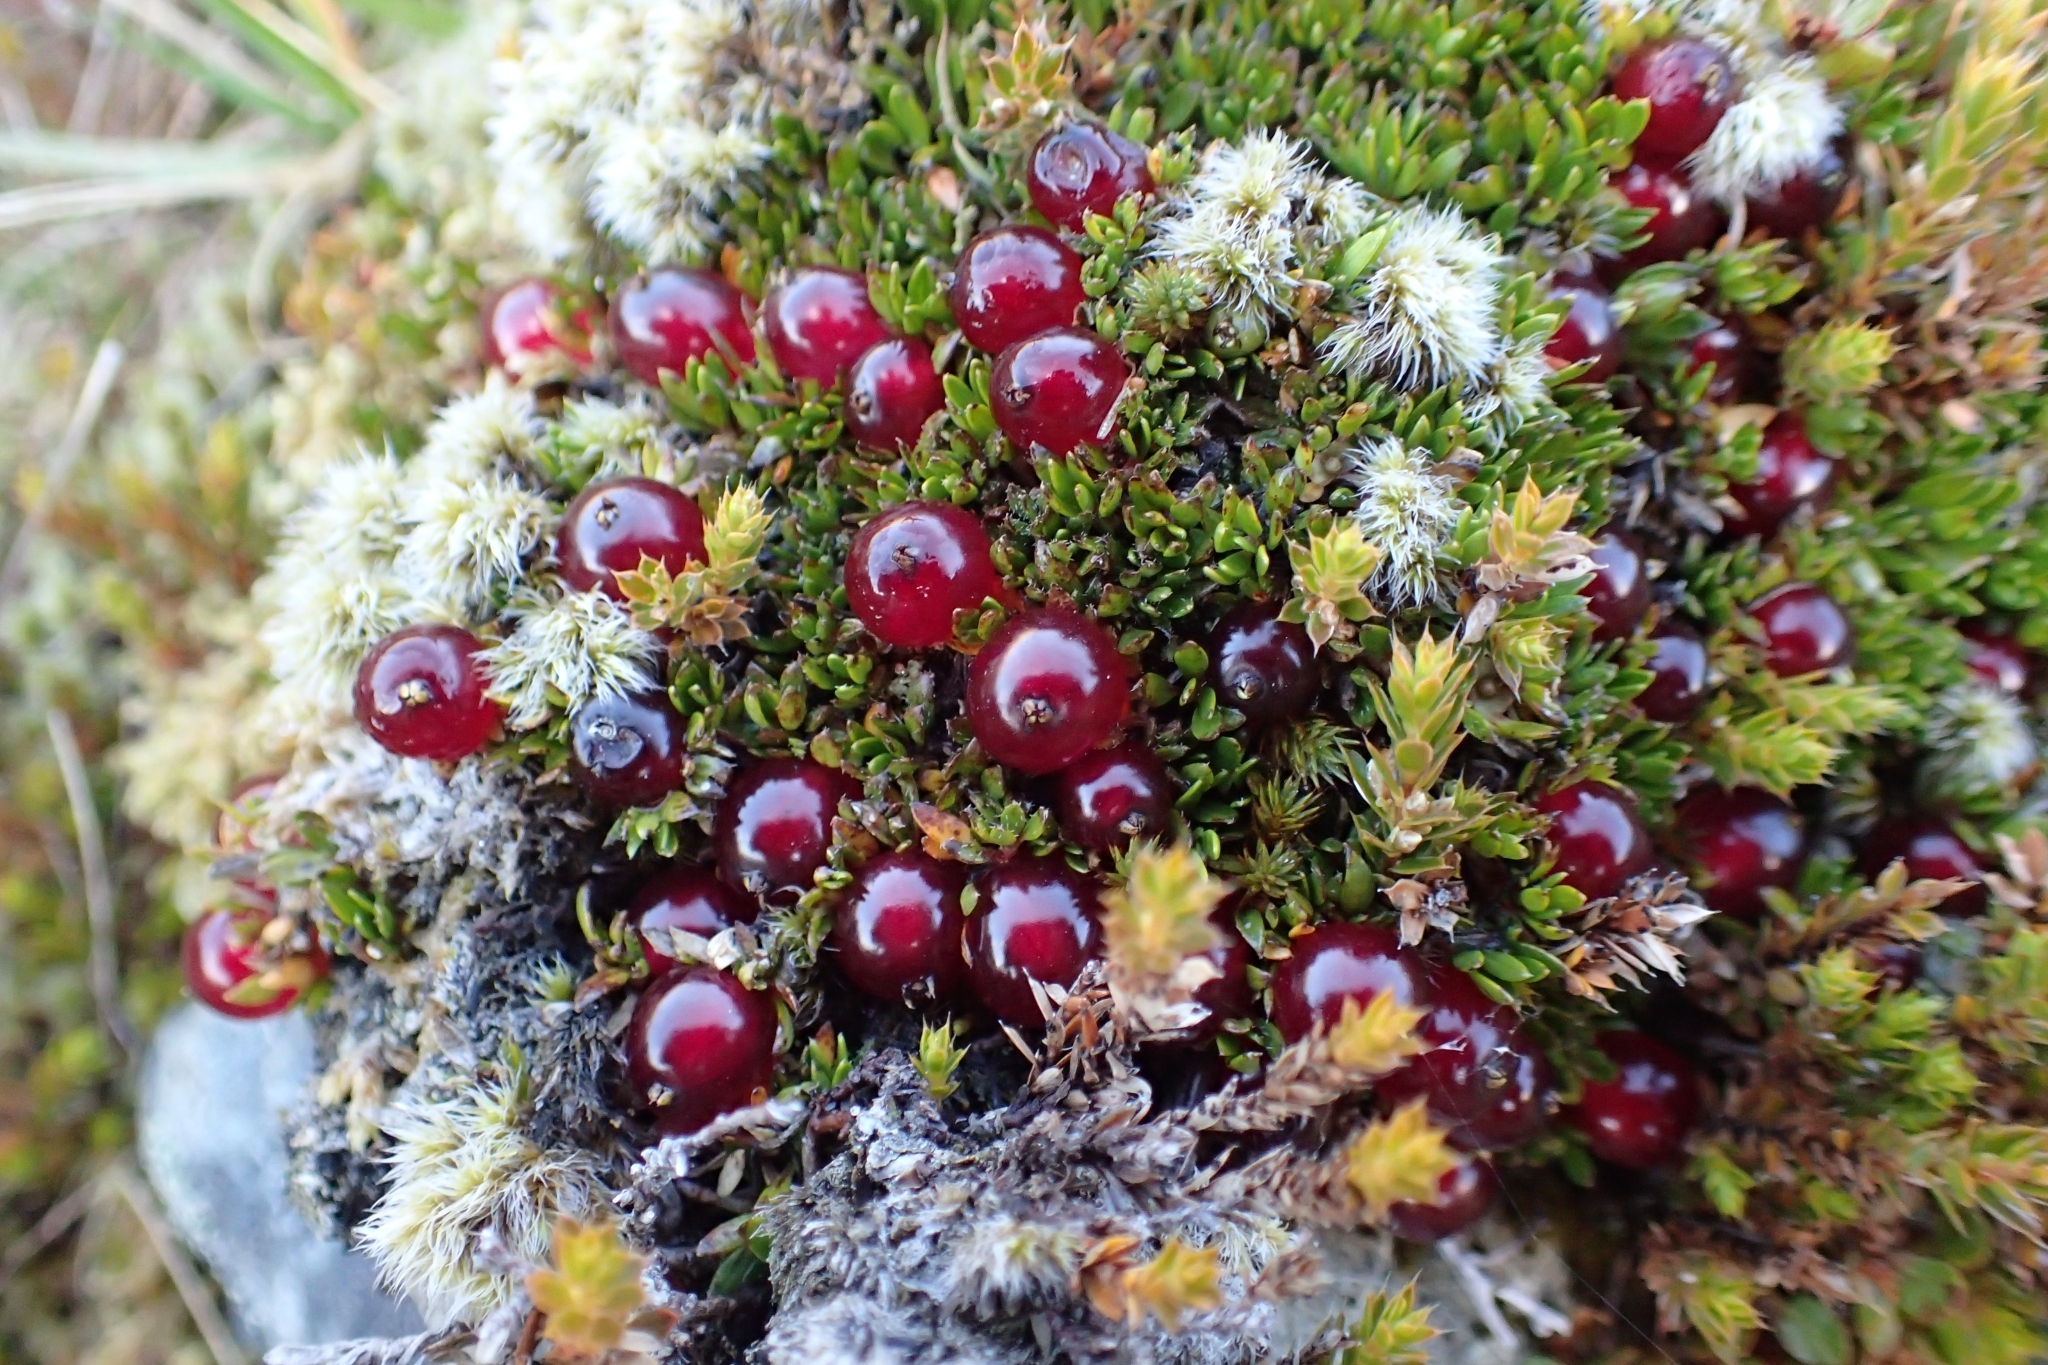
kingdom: Plantae
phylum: Tracheophyta
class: Magnoliopsida
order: Gentianales
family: Rubiaceae
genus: Coprosma
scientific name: Coprosma atropurpurea
